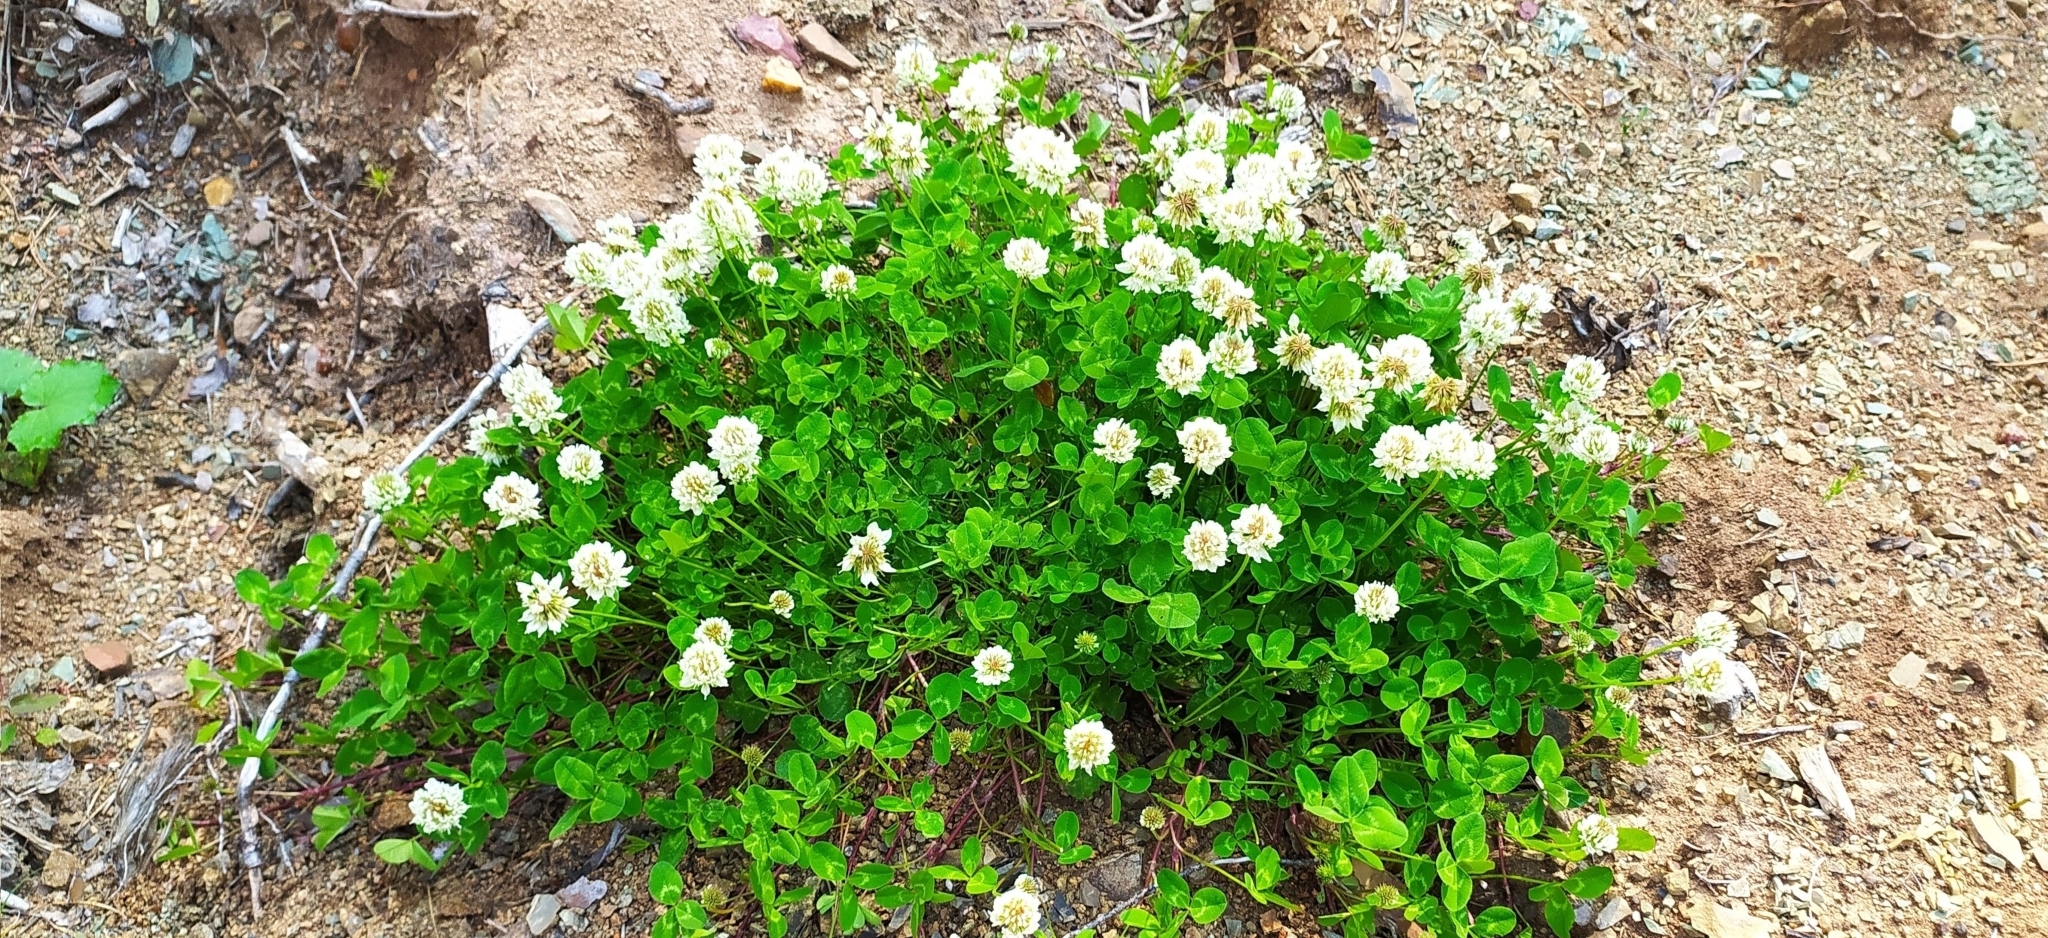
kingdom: Plantae
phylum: Tracheophyta
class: Magnoliopsida
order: Fabales
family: Fabaceae
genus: Trifolium
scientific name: Trifolium repens
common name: White clover
